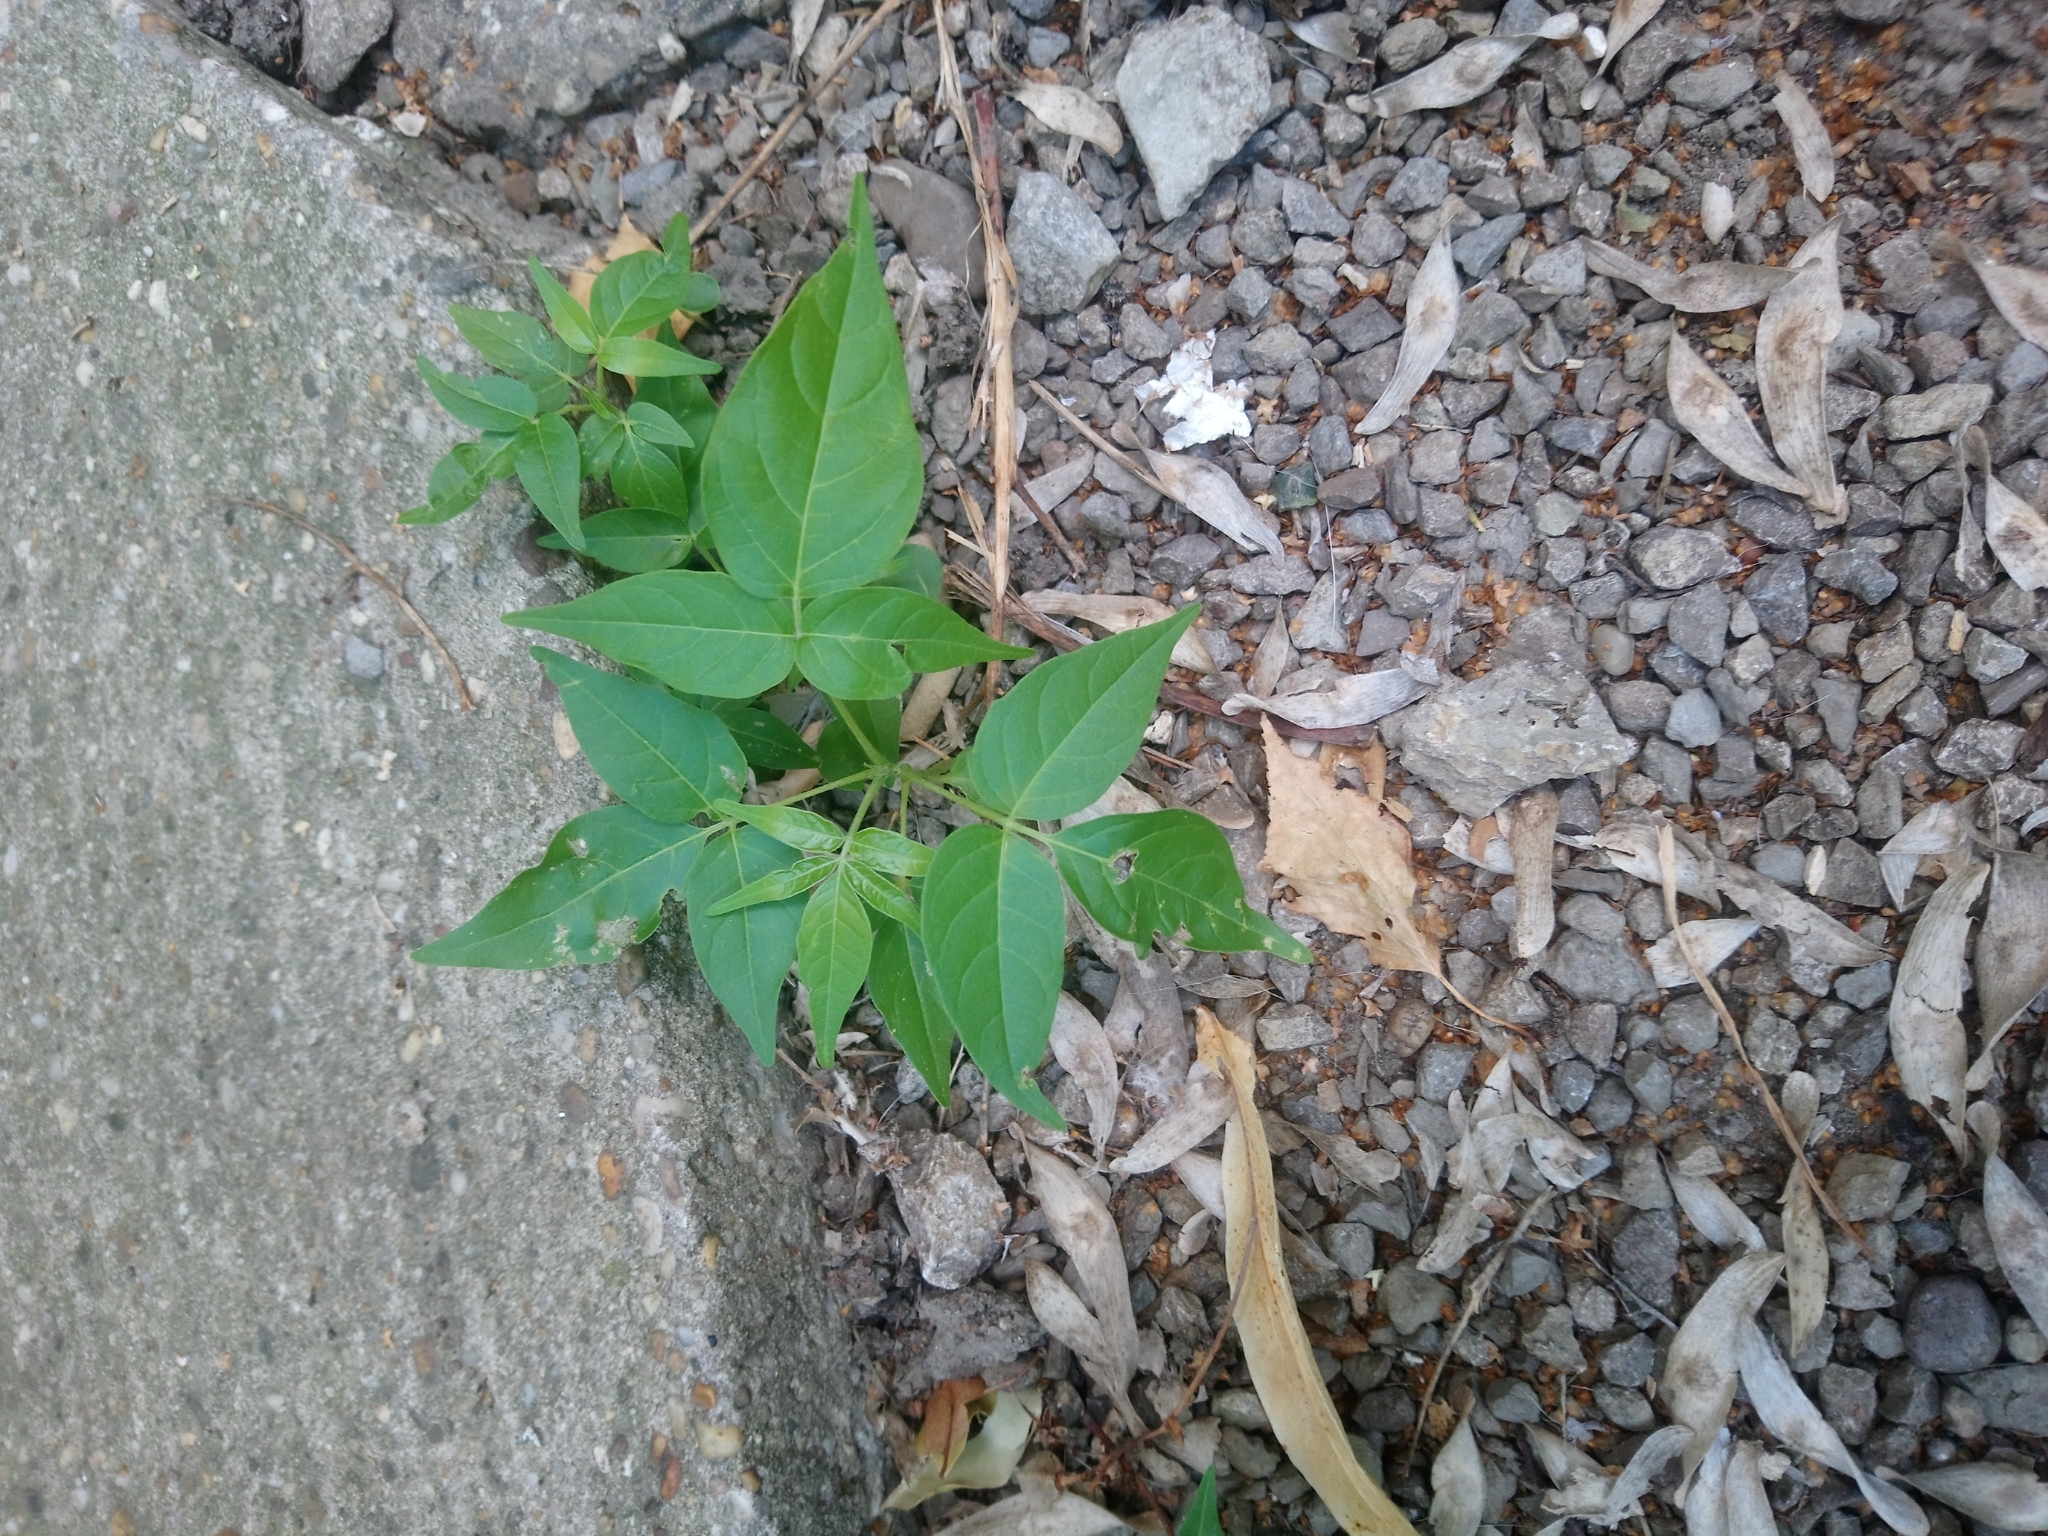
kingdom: Plantae
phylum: Tracheophyta
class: Magnoliopsida
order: Sapindales
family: Simaroubaceae
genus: Ailanthus
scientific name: Ailanthus altissima
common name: Tree-of-heaven
